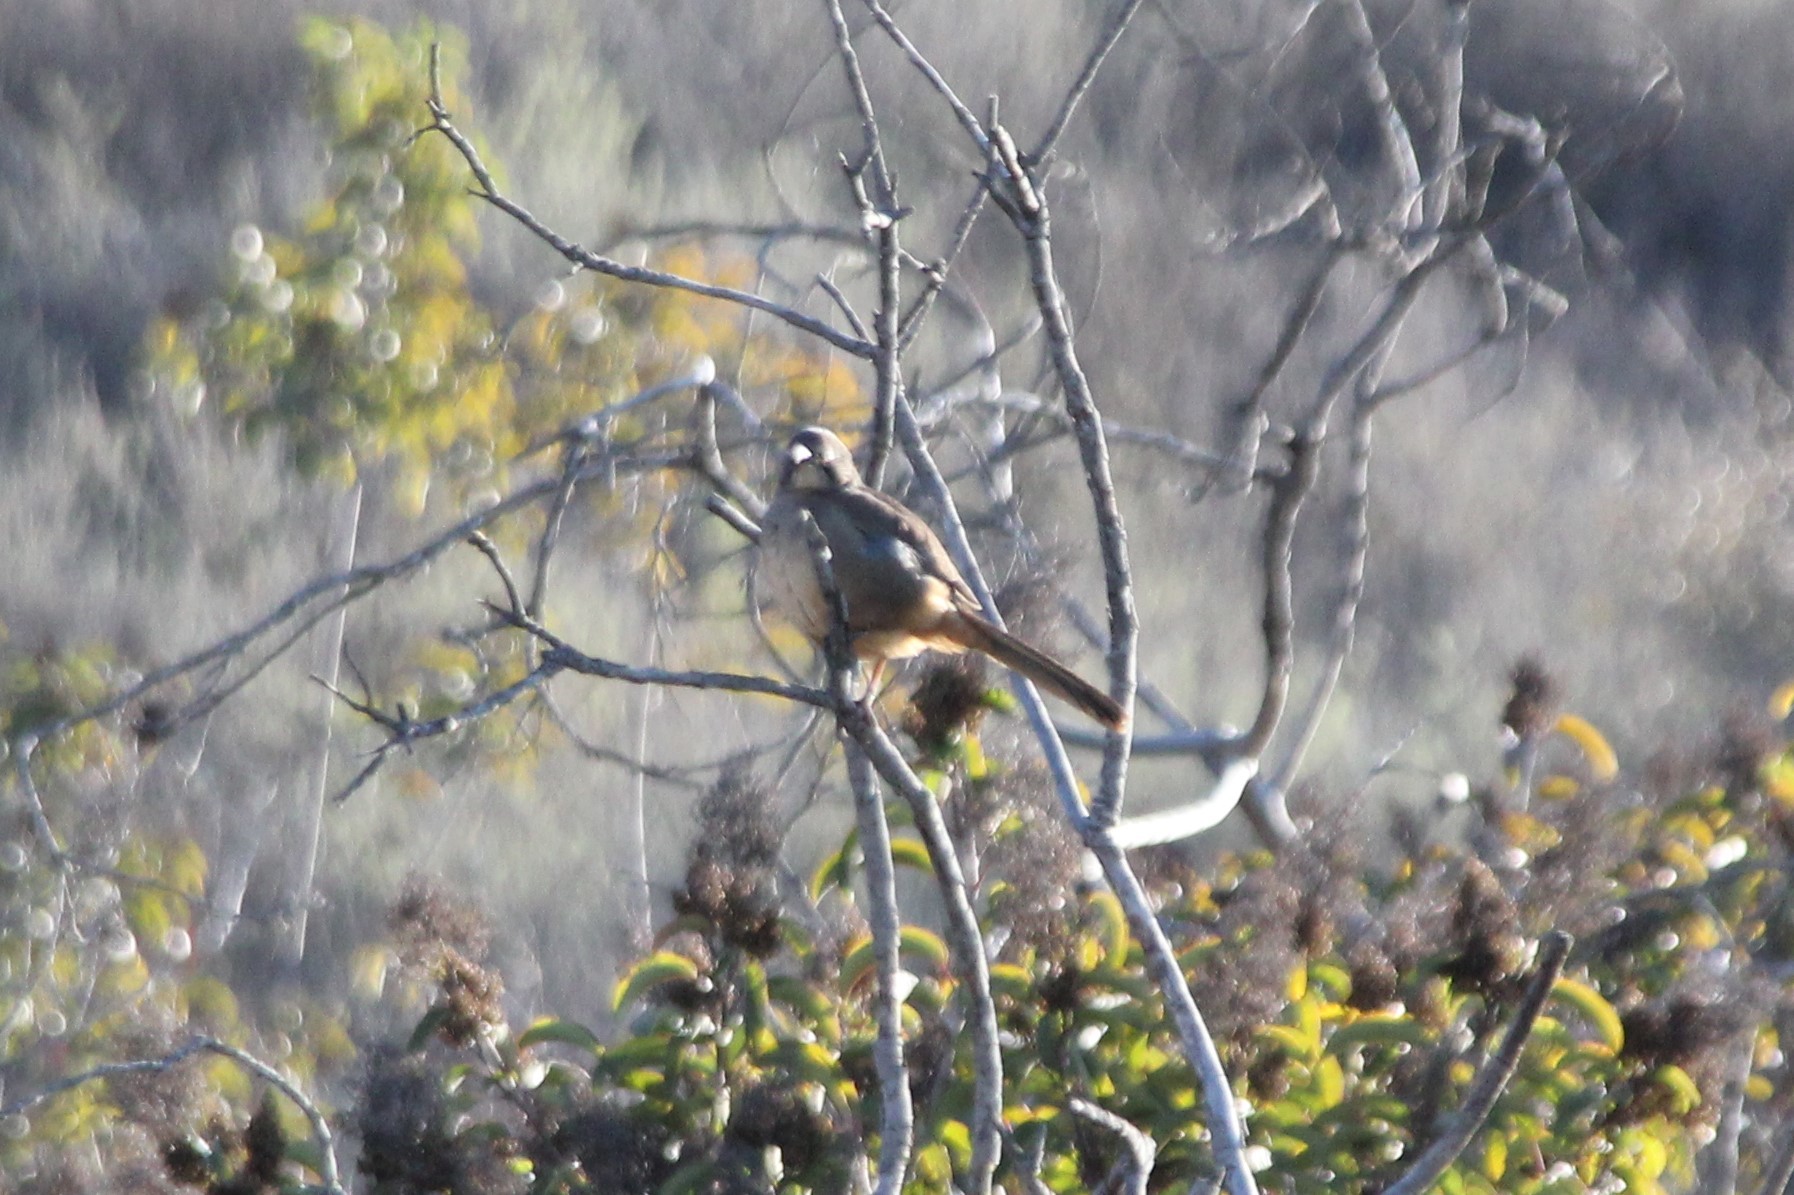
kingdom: Animalia
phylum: Chordata
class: Aves
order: Passeriformes
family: Mimidae
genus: Toxostoma
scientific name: Toxostoma redivivum
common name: California thrasher
